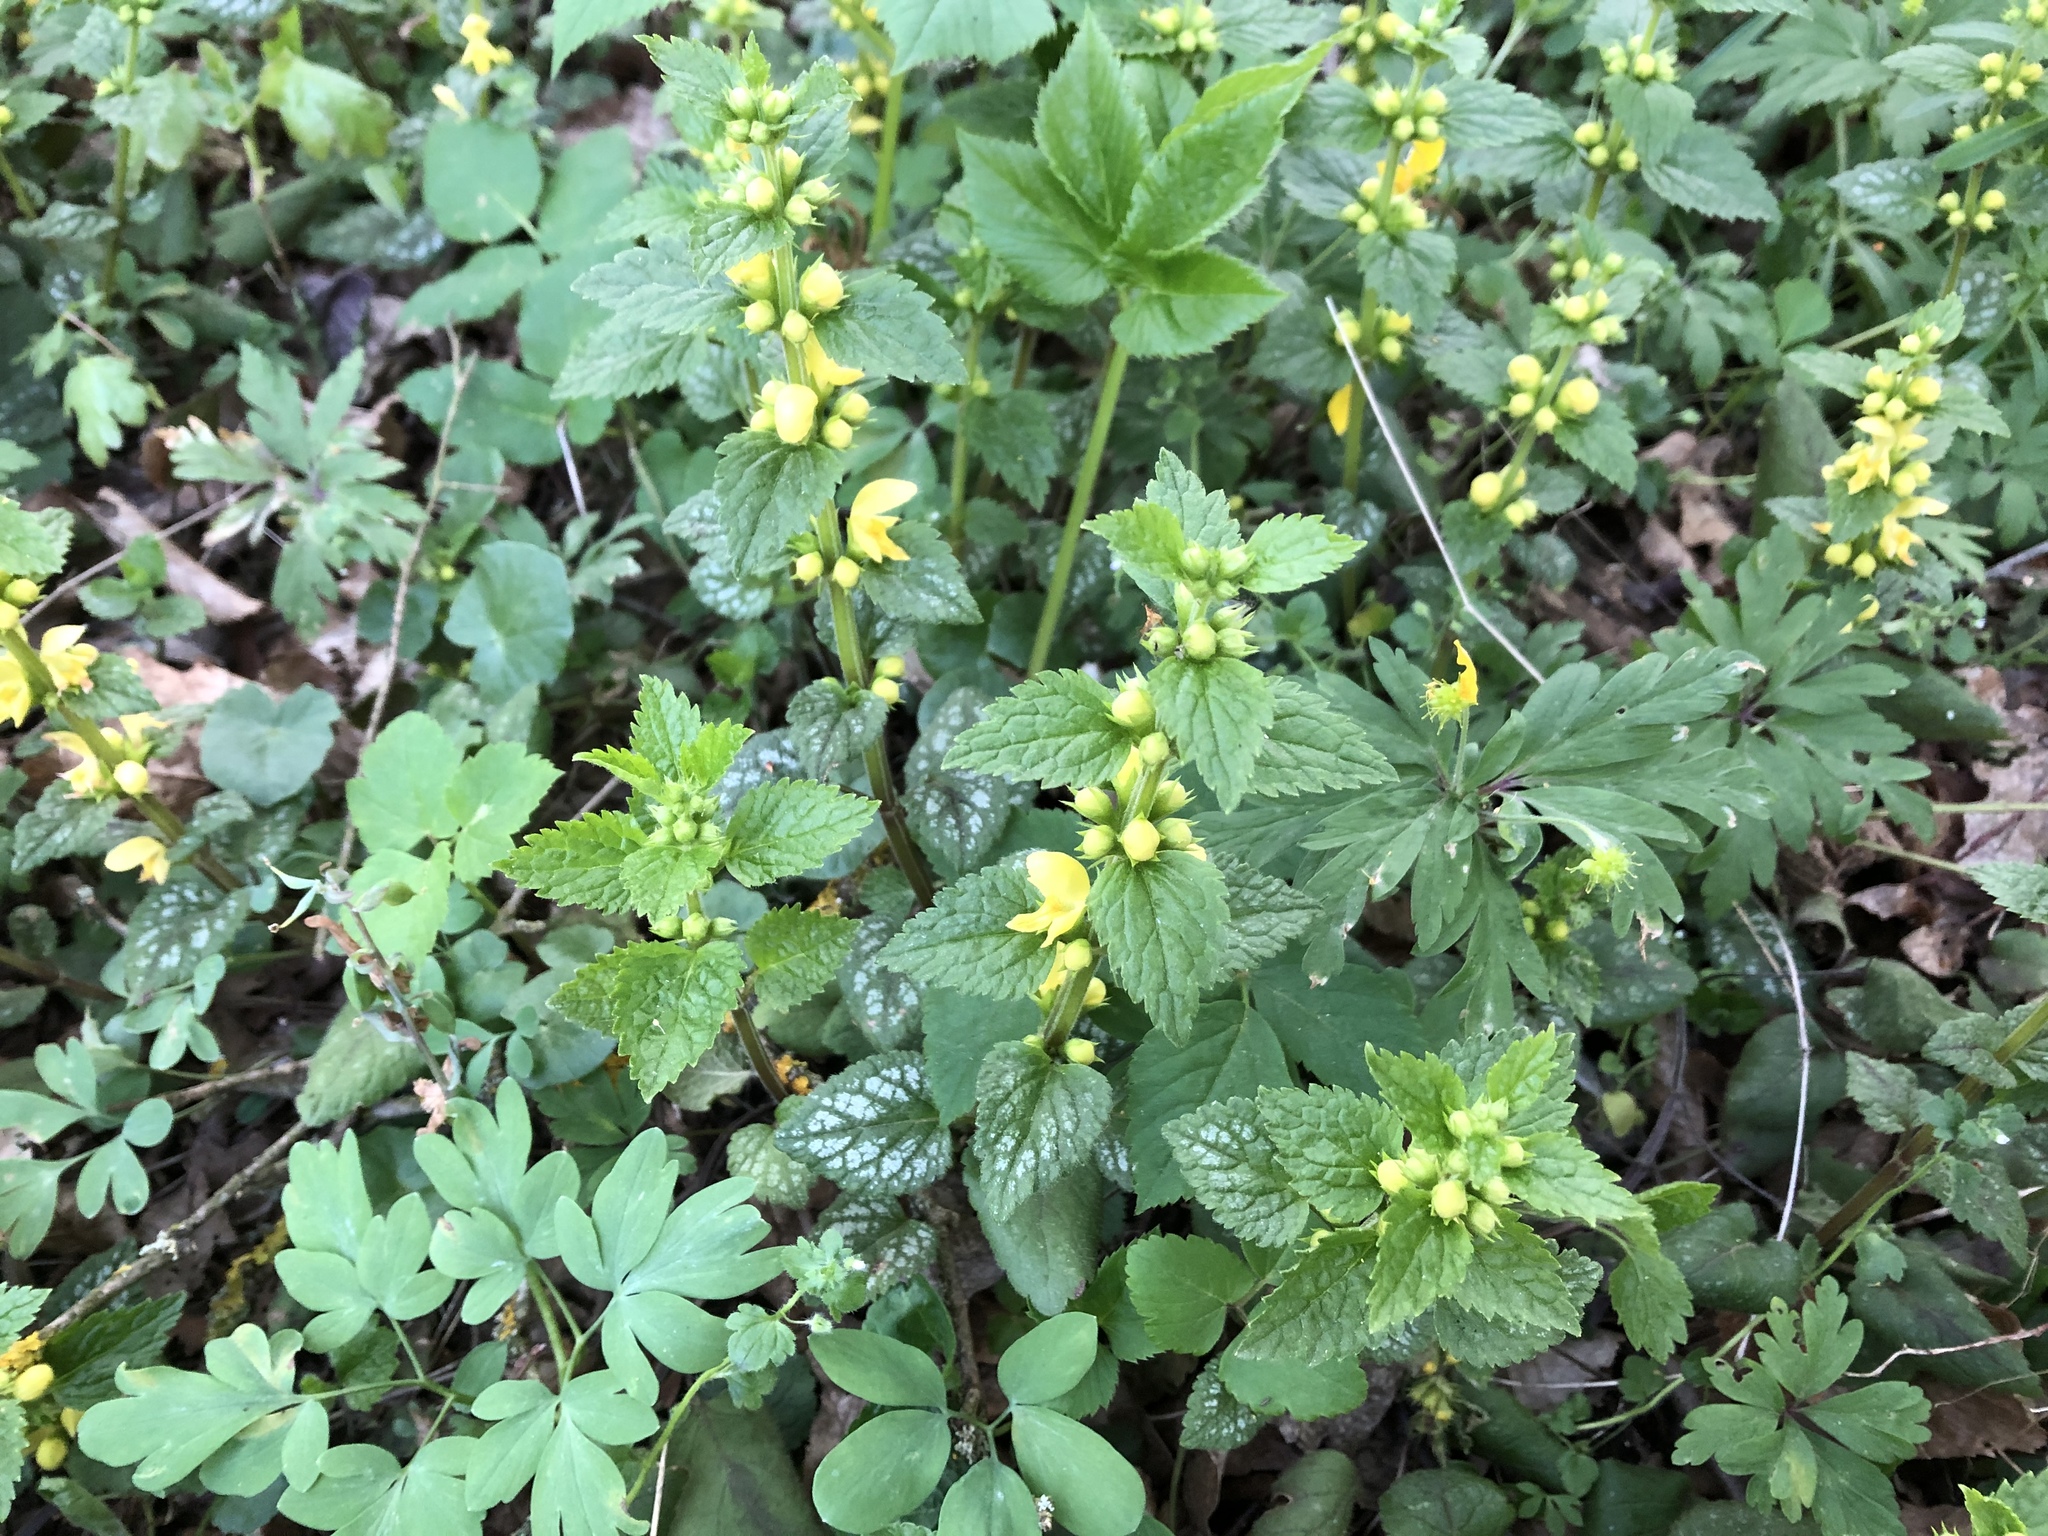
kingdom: Plantae
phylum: Tracheophyta
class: Magnoliopsida
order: Lamiales
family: Lamiaceae
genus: Lamium
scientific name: Lamium galeobdolon
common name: Yellow archangel
